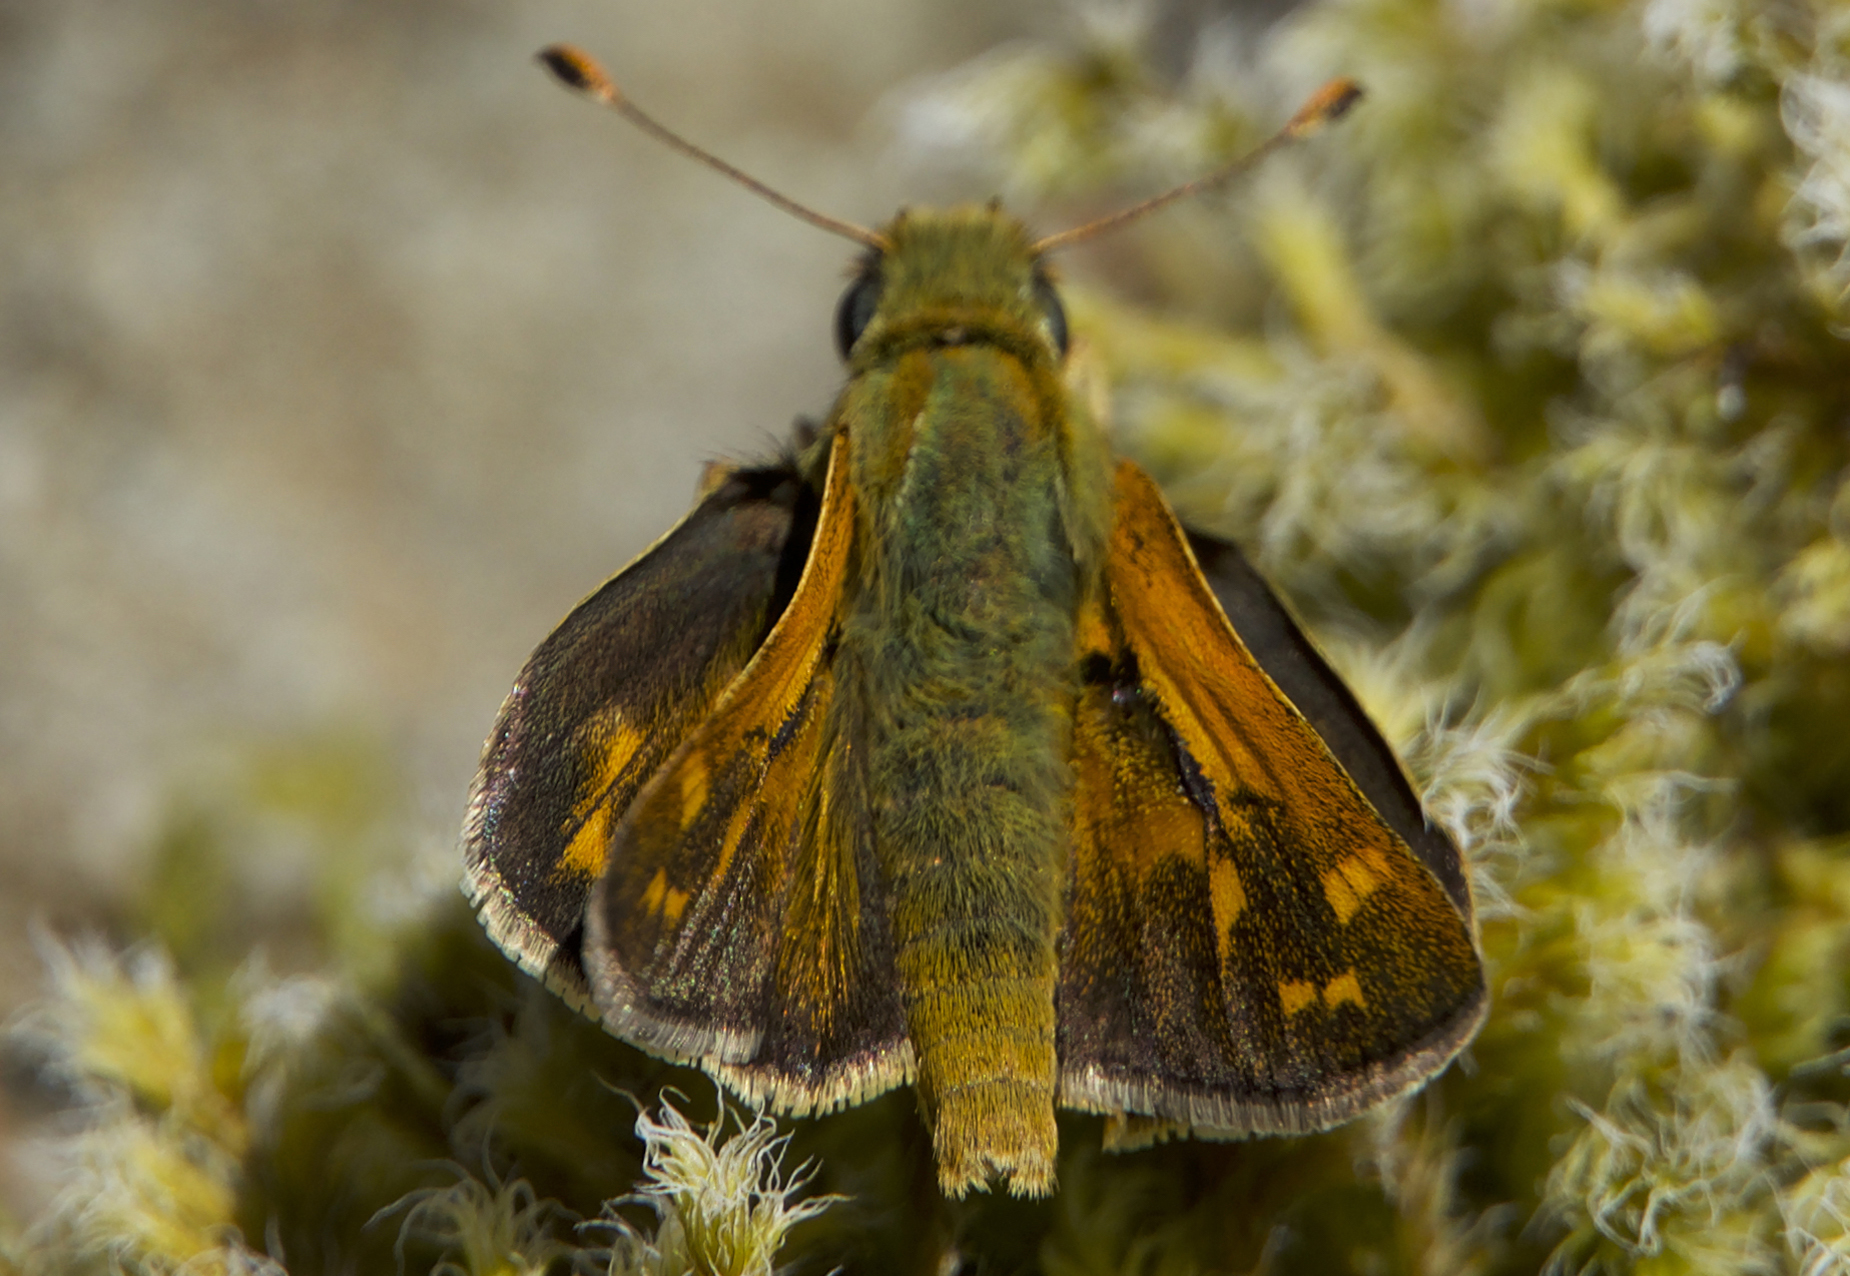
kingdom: Animalia
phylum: Arthropoda
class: Insecta
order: Lepidoptera
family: Hesperiidae
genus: Ochlodes
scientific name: Ochlodes sylvanoides
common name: Woodland skipper
